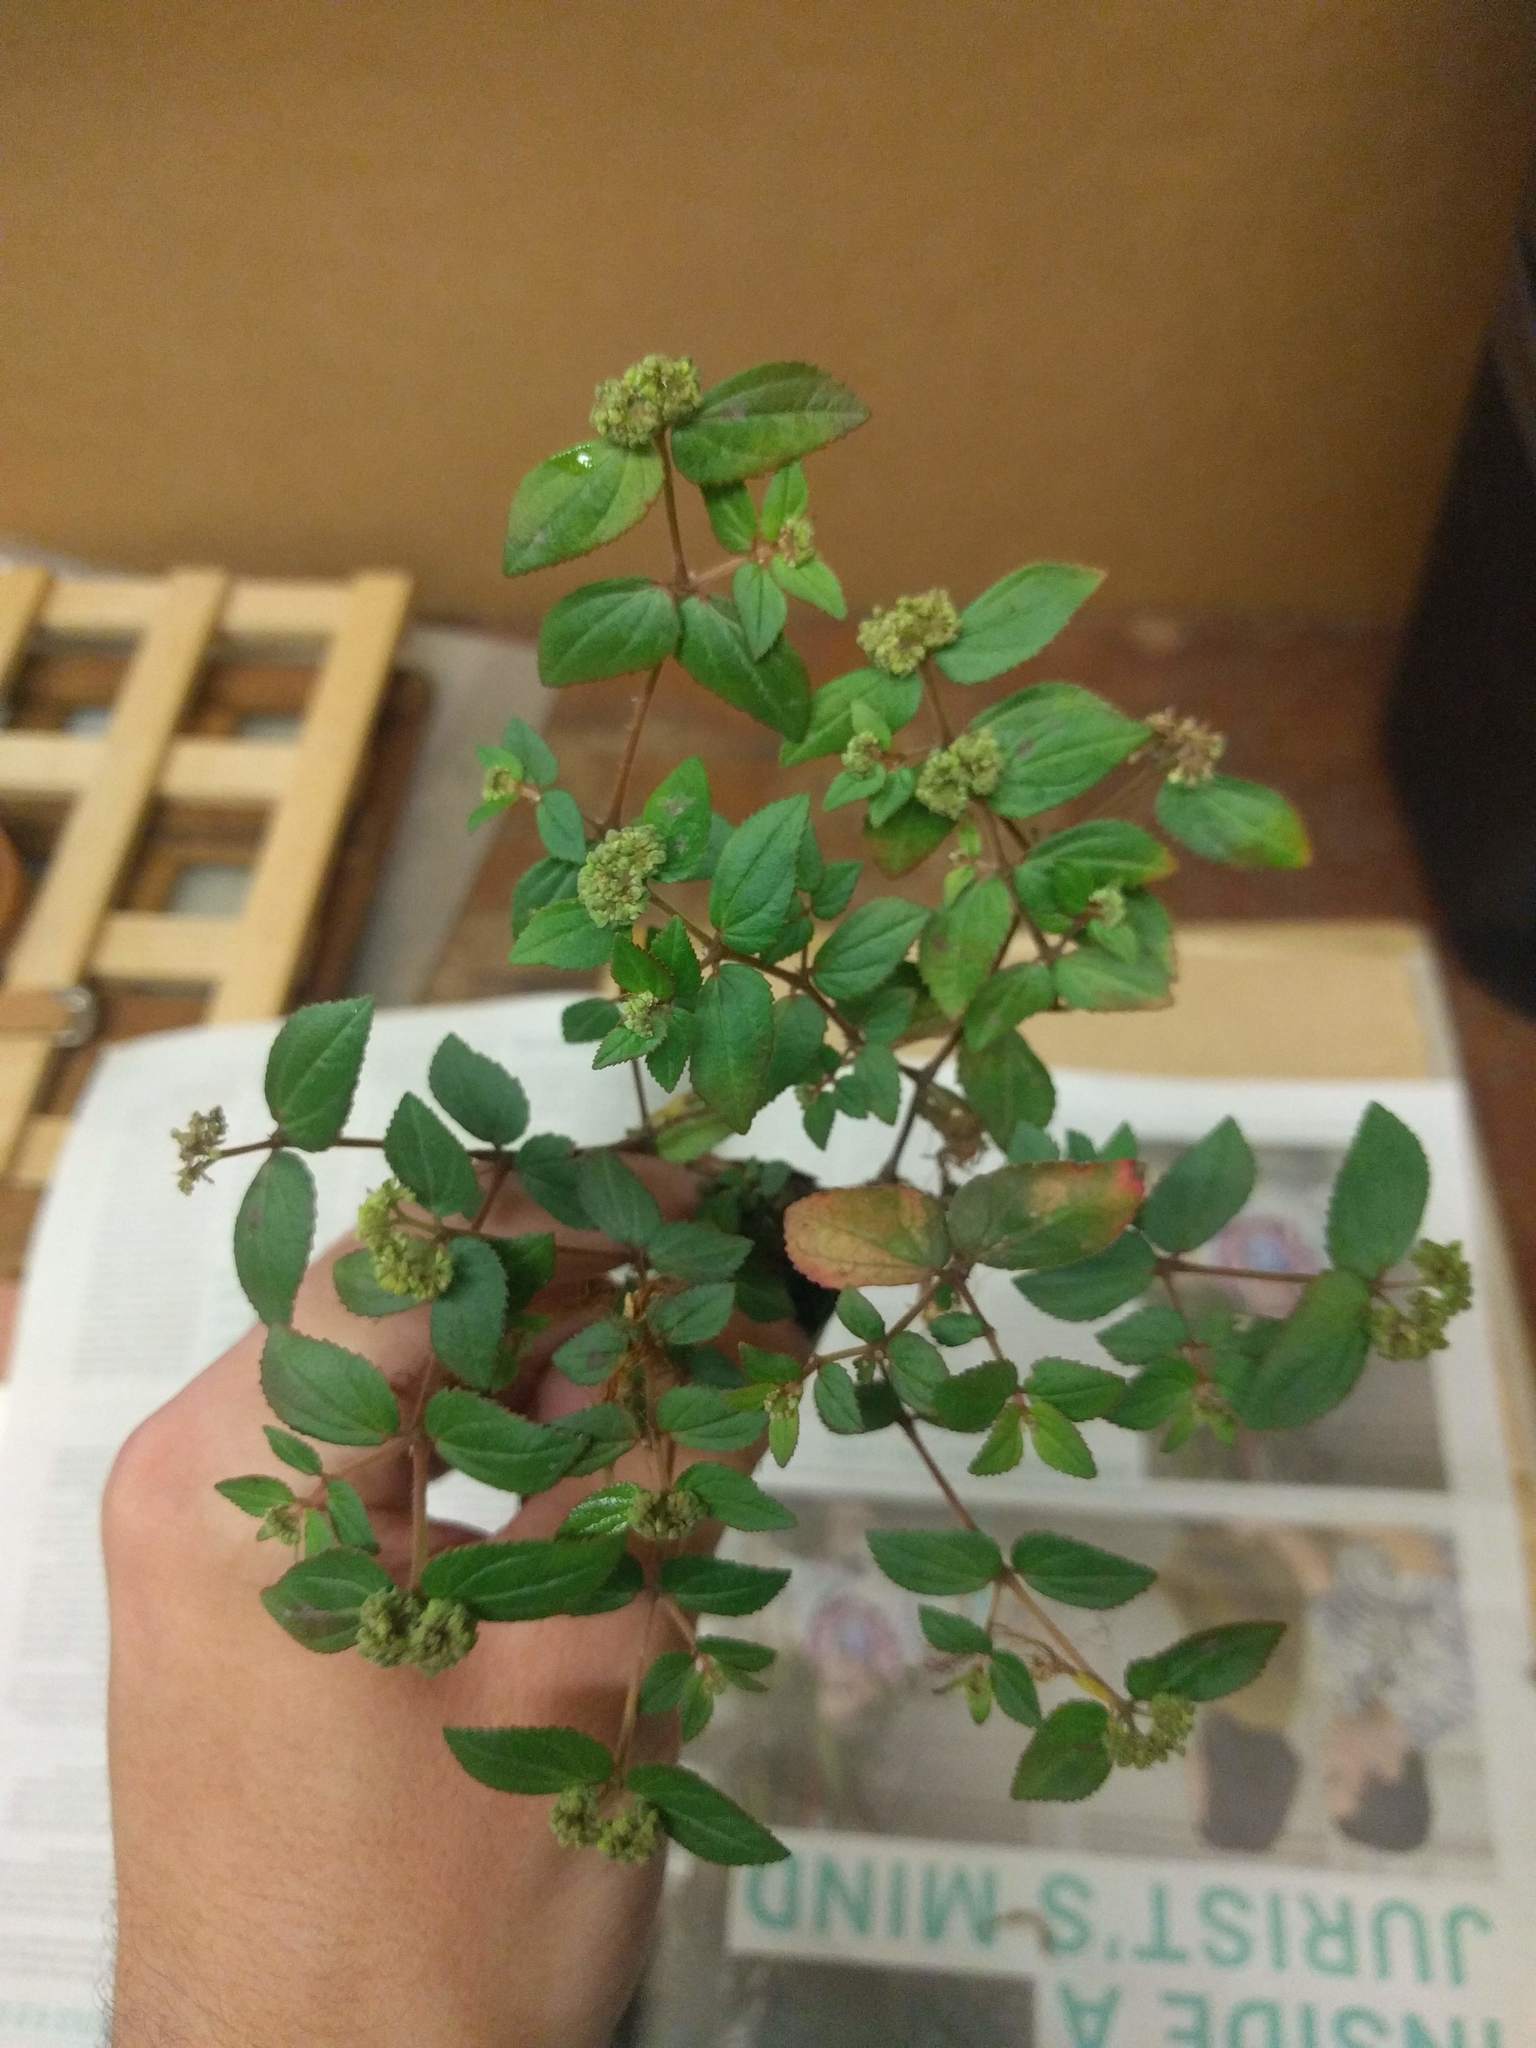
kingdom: Plantae
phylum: Tracheophyta
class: Magnoliopsida
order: Malpighiales
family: Euphorbiaceae
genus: Euphorbia
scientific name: Euphorbia ophthalmica
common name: Florida hammock sandmat
